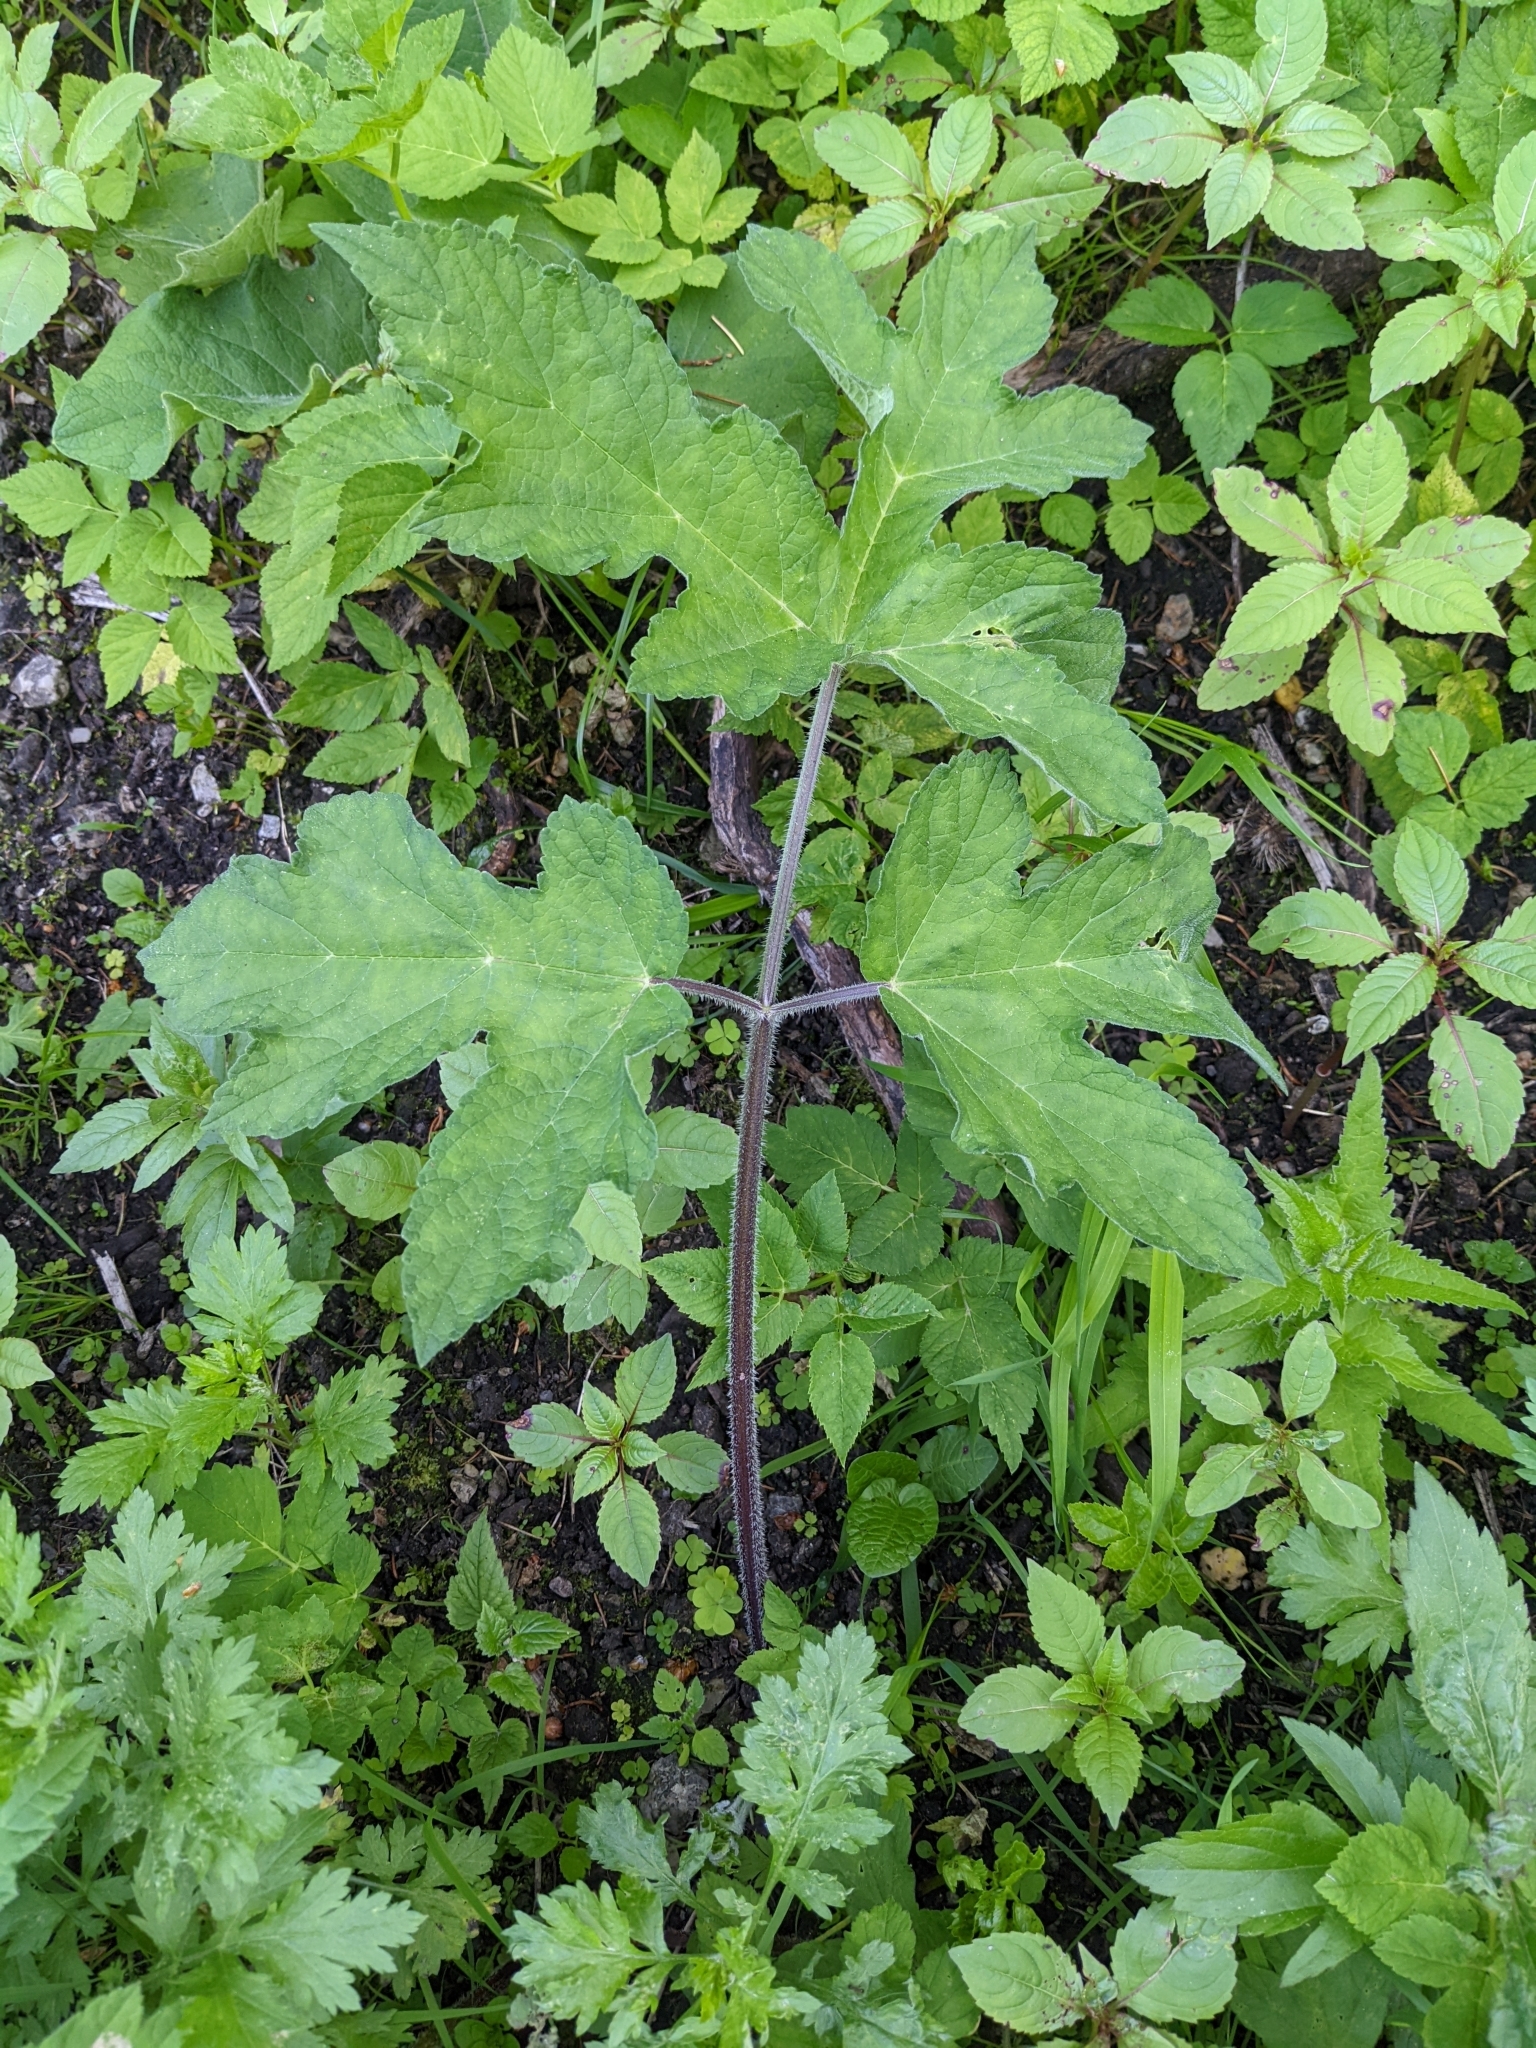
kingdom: Plantae
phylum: Tracheophyta
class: Magnoliopsida
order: Apiales
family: Apiaceae
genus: Heracleum
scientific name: Heracleum sphondylium
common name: Hogweed
